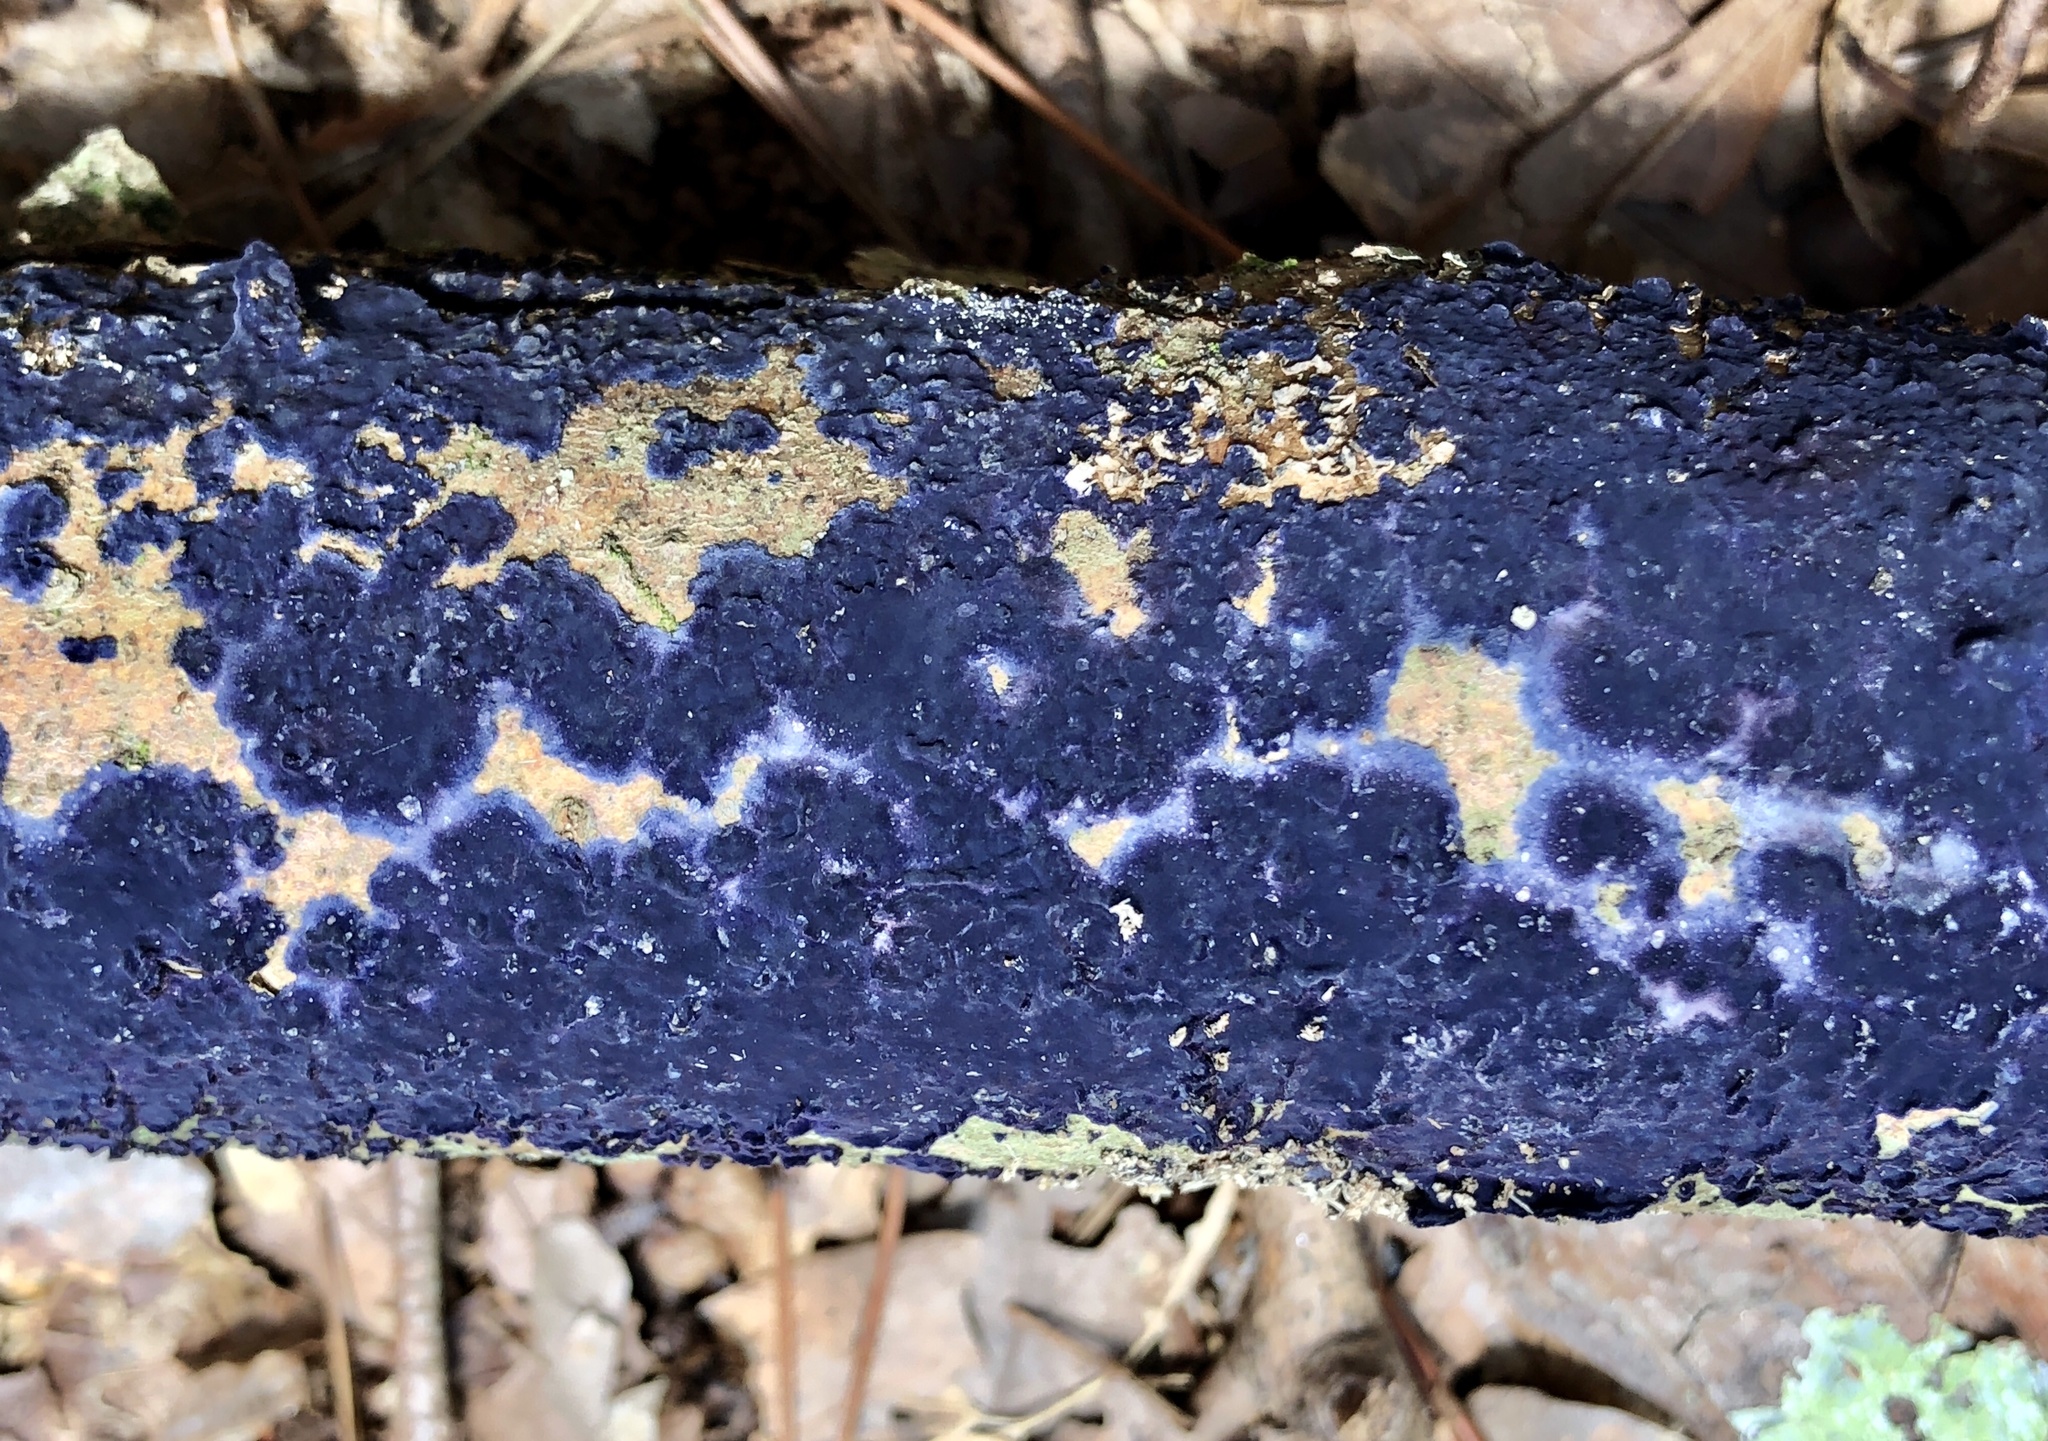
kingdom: Fungi
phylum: Basidiomycota
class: Agaricomycetes
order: Polyporales
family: Phanerochaetaceae
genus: Terana
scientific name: Terana coerulea
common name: Cobalt crust
